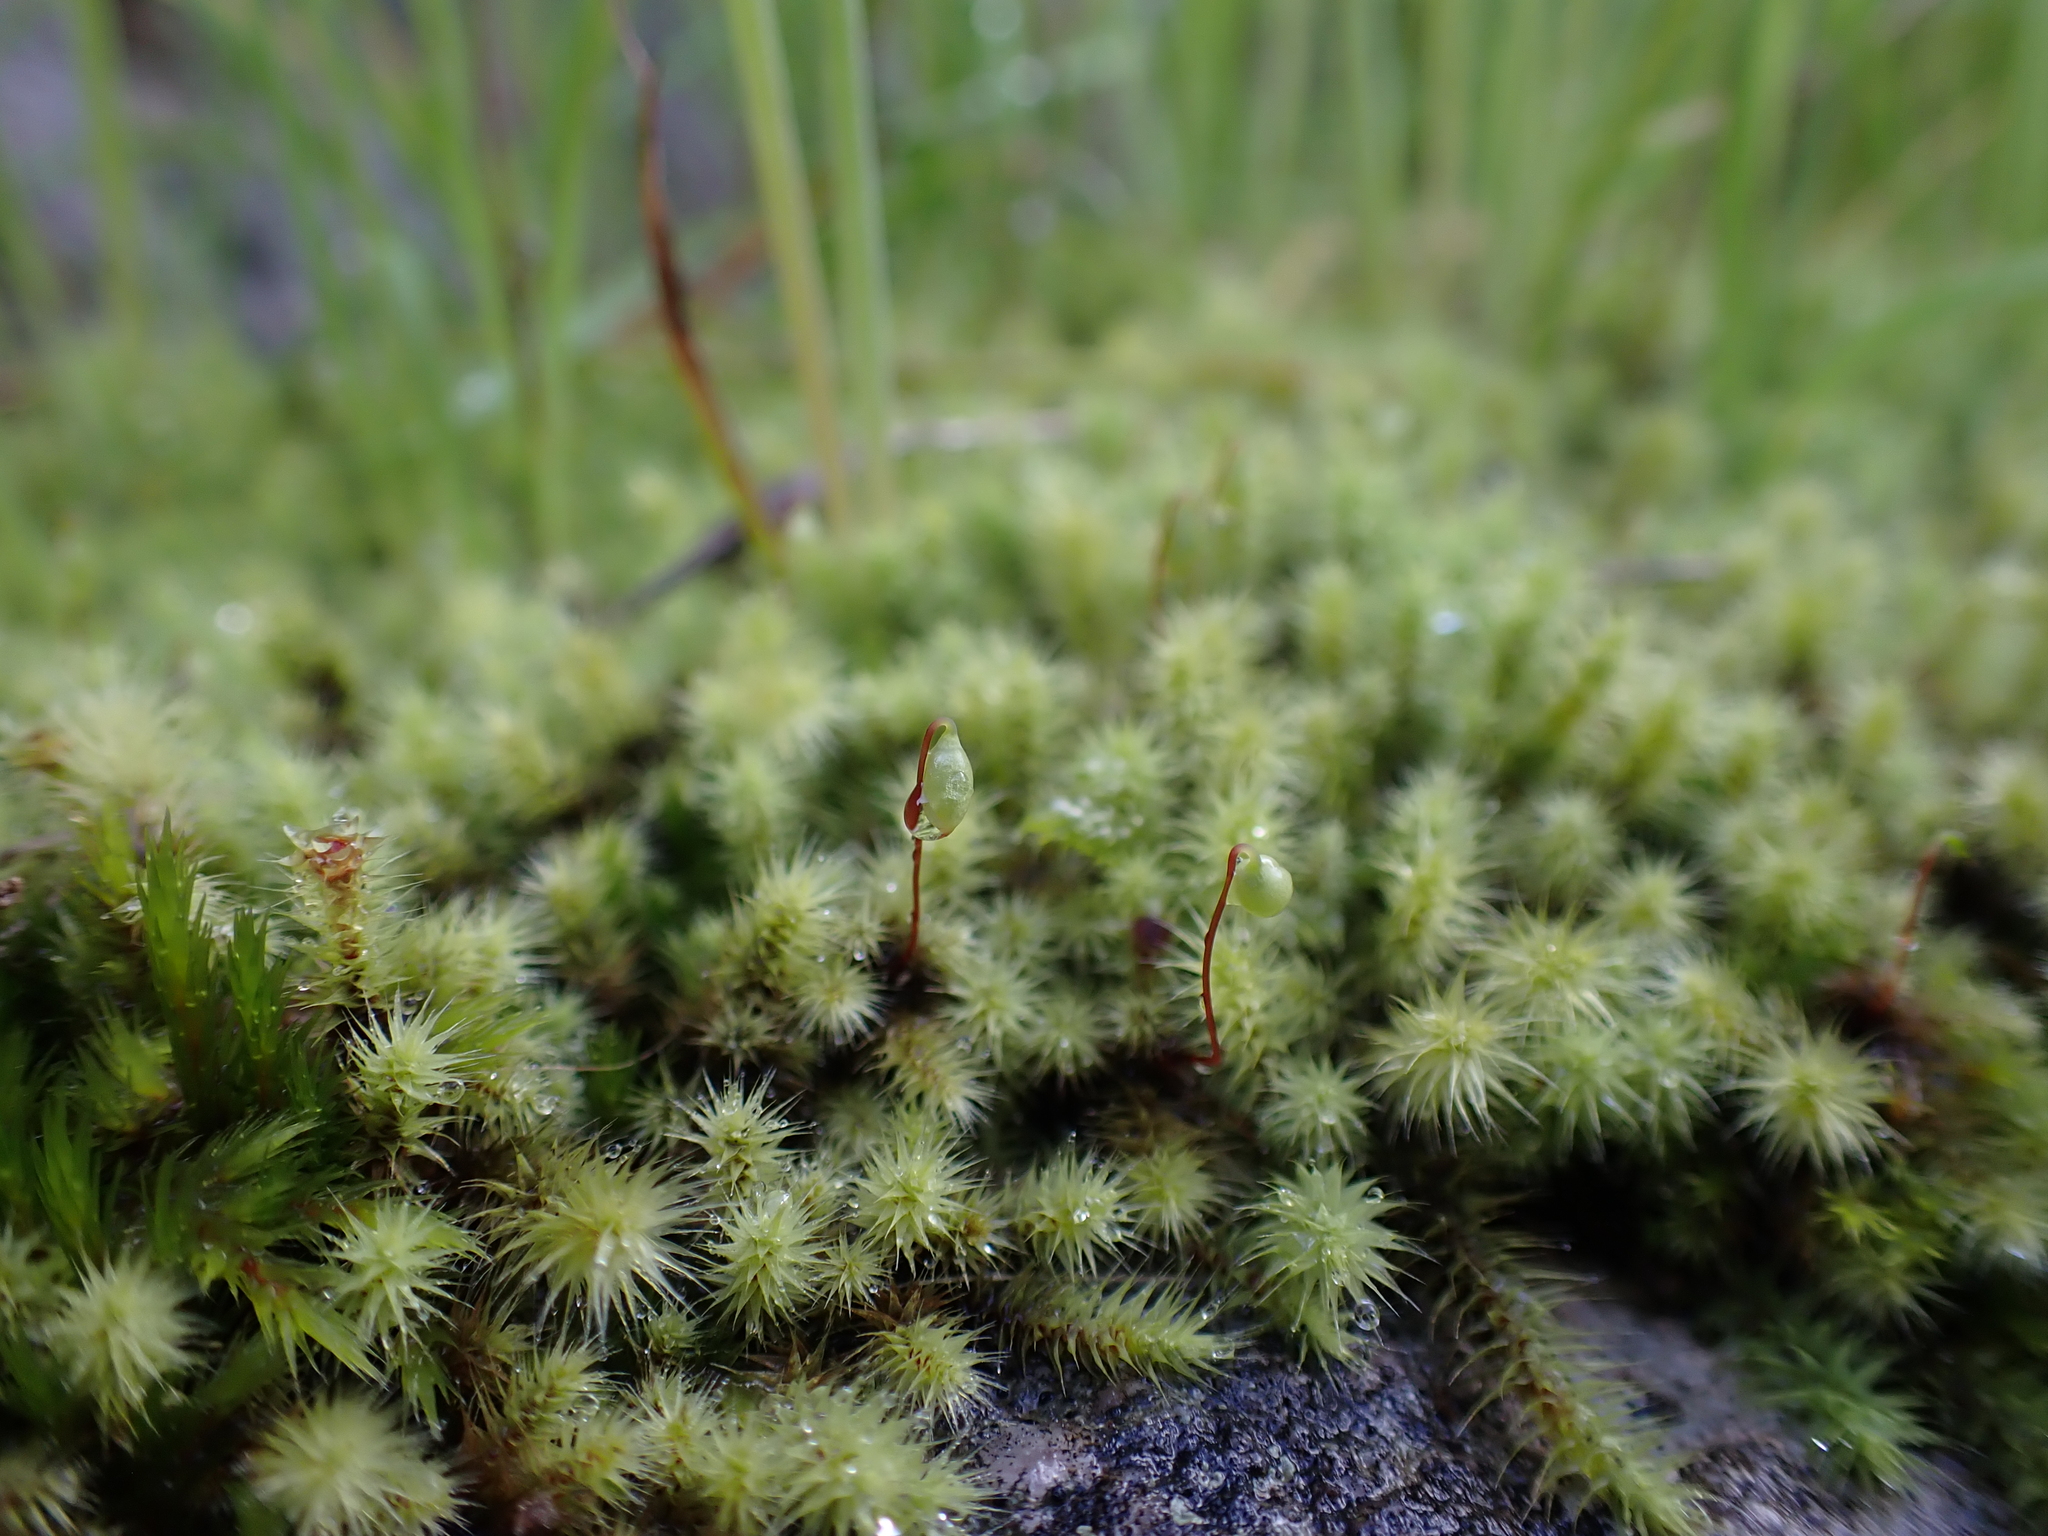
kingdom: Plantae
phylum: Bryophyta
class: Bryopsida
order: Bartramiales
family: Bartramiaceae
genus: Breutelia
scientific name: Breutelia affinis
